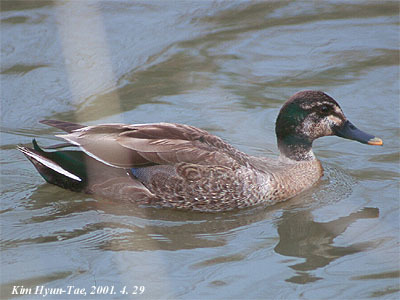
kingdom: Animalia
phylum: Chordata
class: Aves
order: Anseriformes
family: Anatidae
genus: Anas
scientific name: Anas
